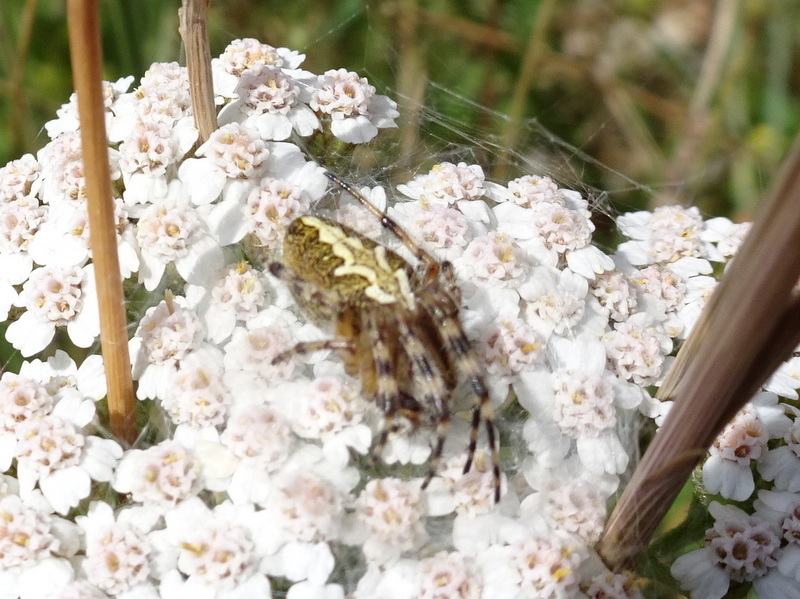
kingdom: Animalia
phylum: Arthropoda
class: Arachnida
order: Araneae
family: Araneidae
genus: Aculepeira
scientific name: Aculepeira ceropegia
